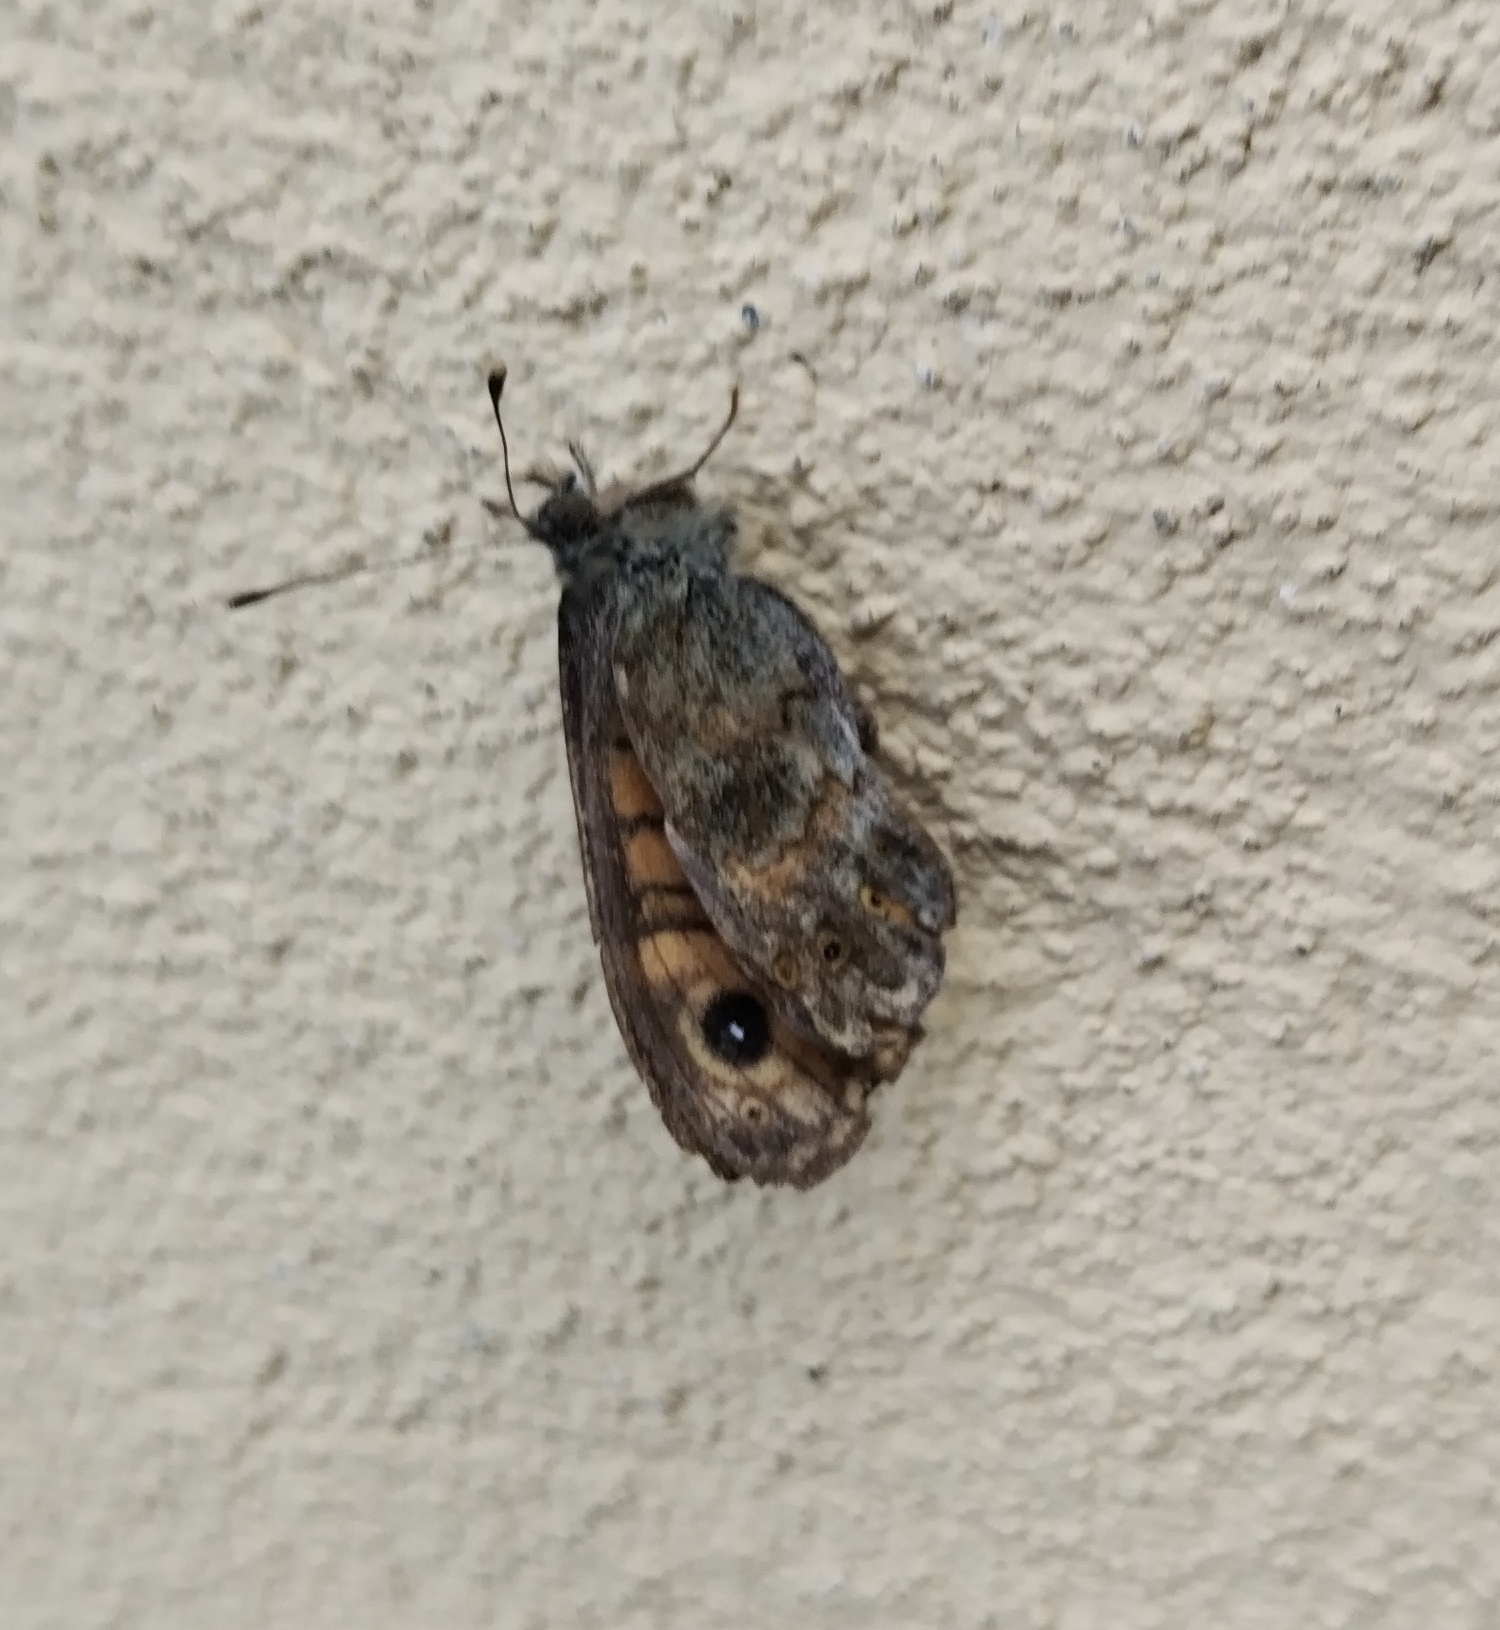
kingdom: Animalia
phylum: Arthropoda
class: Insecta
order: Lepidoptera
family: Nymphalidae
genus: Pararge
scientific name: Pararge Lasiommata megera
